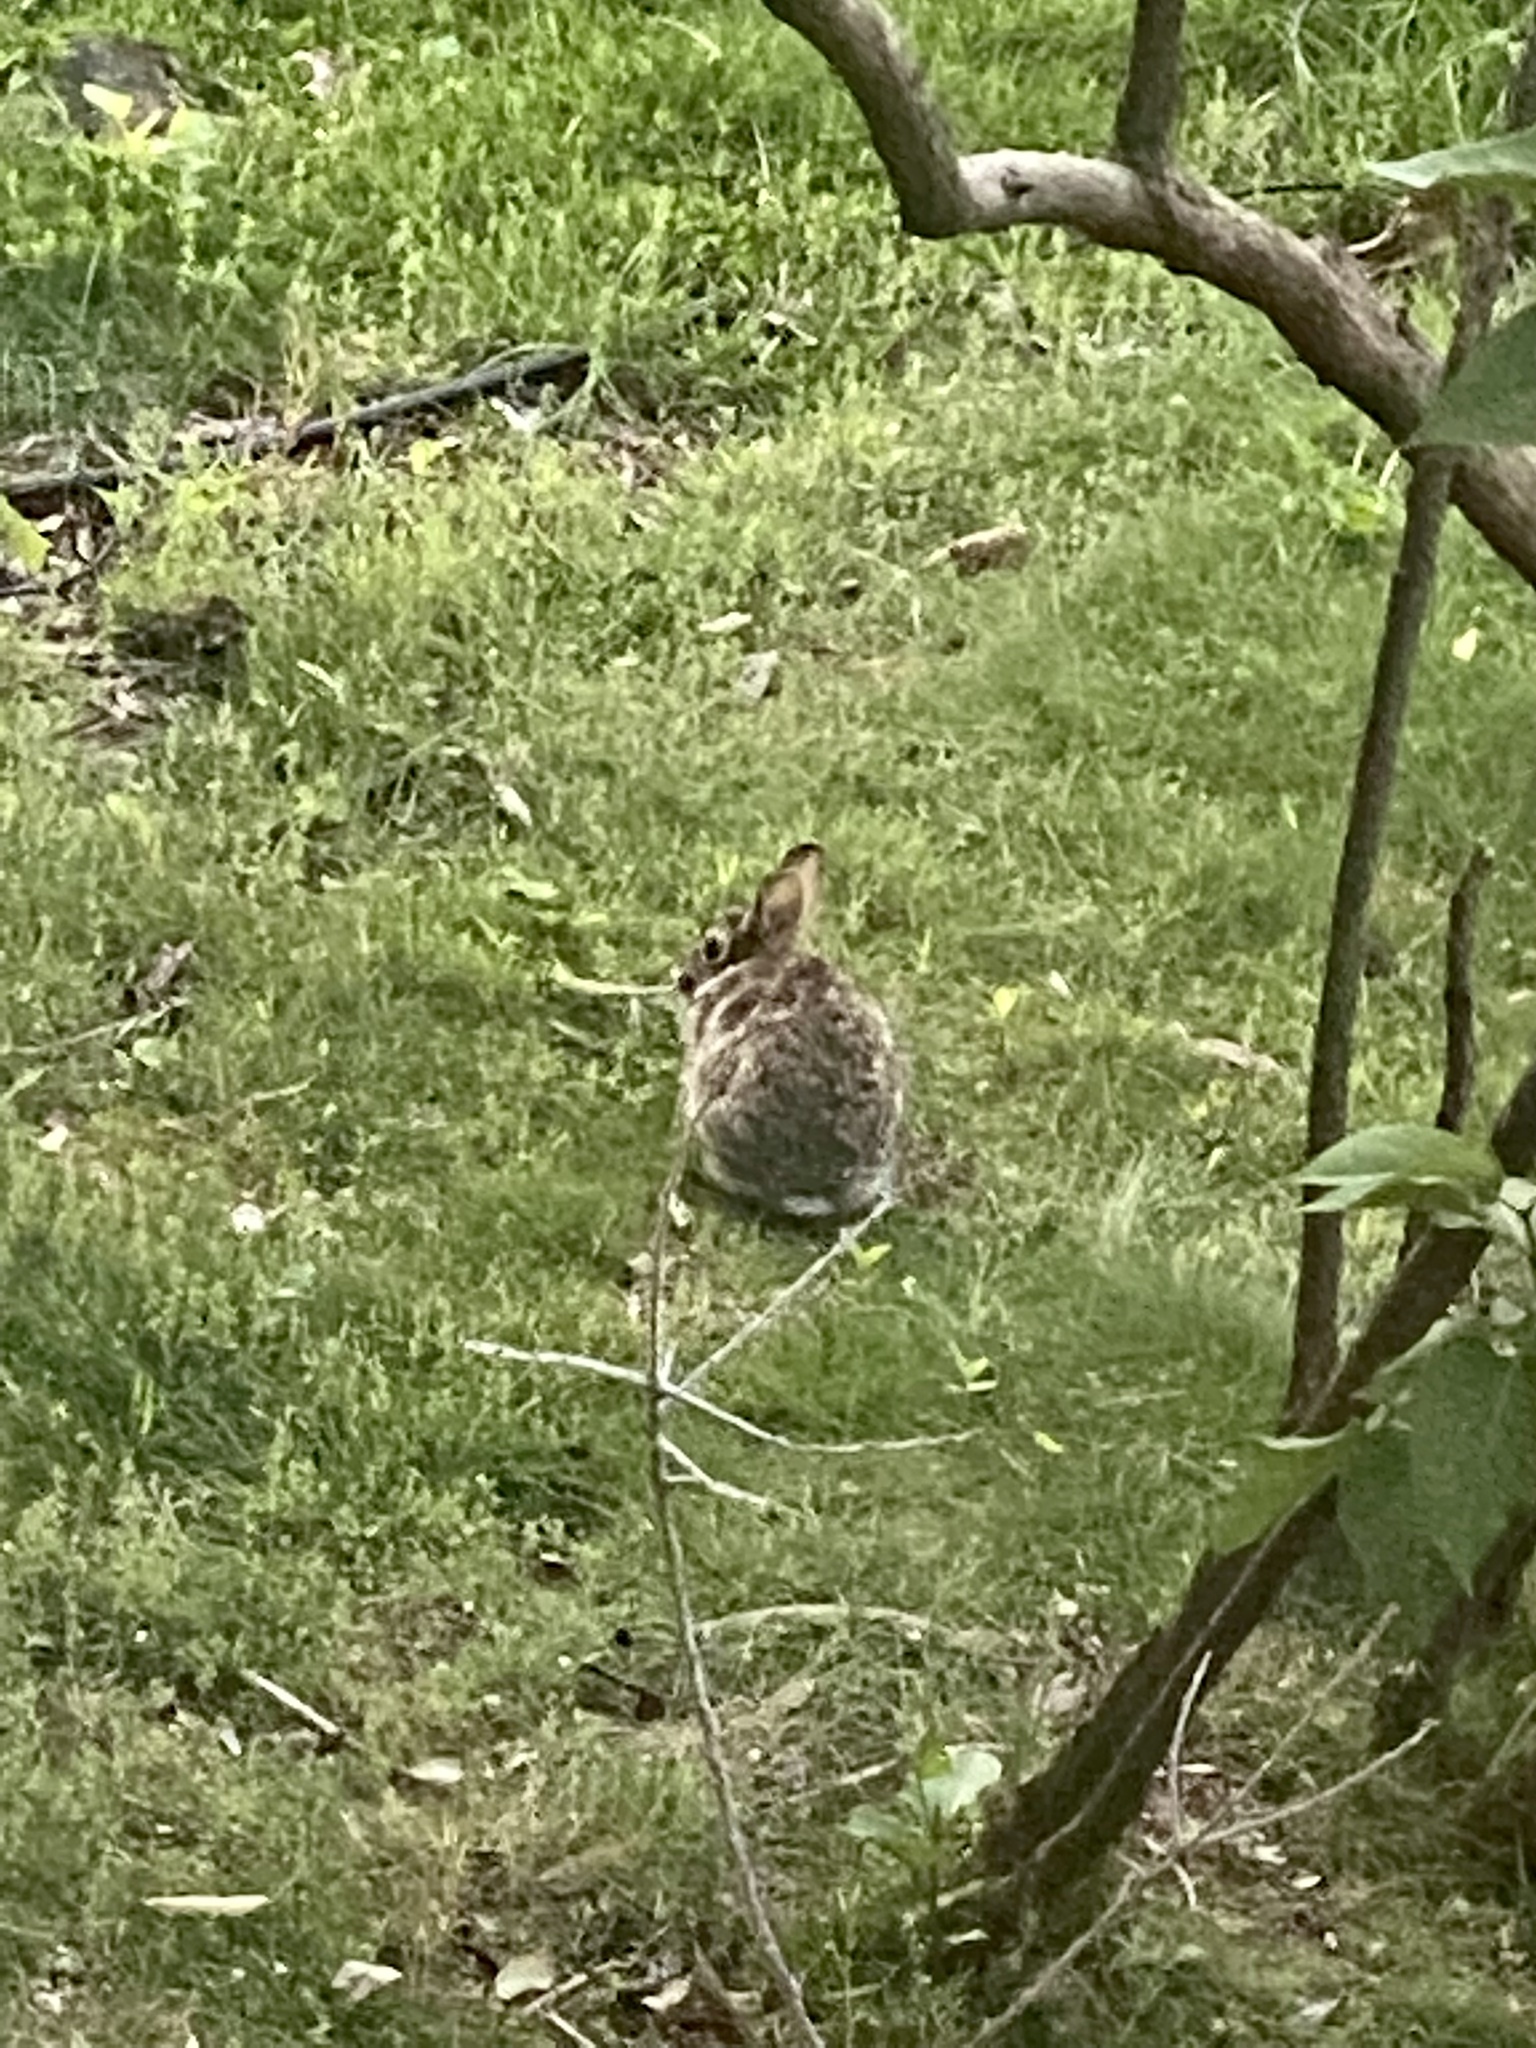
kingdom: Animalia
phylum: Chordata
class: Mammalia
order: Lagomorpha
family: Leporidae
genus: Sylvilagus
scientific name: Sylvilagus floridanus
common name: Eastern cottontail
